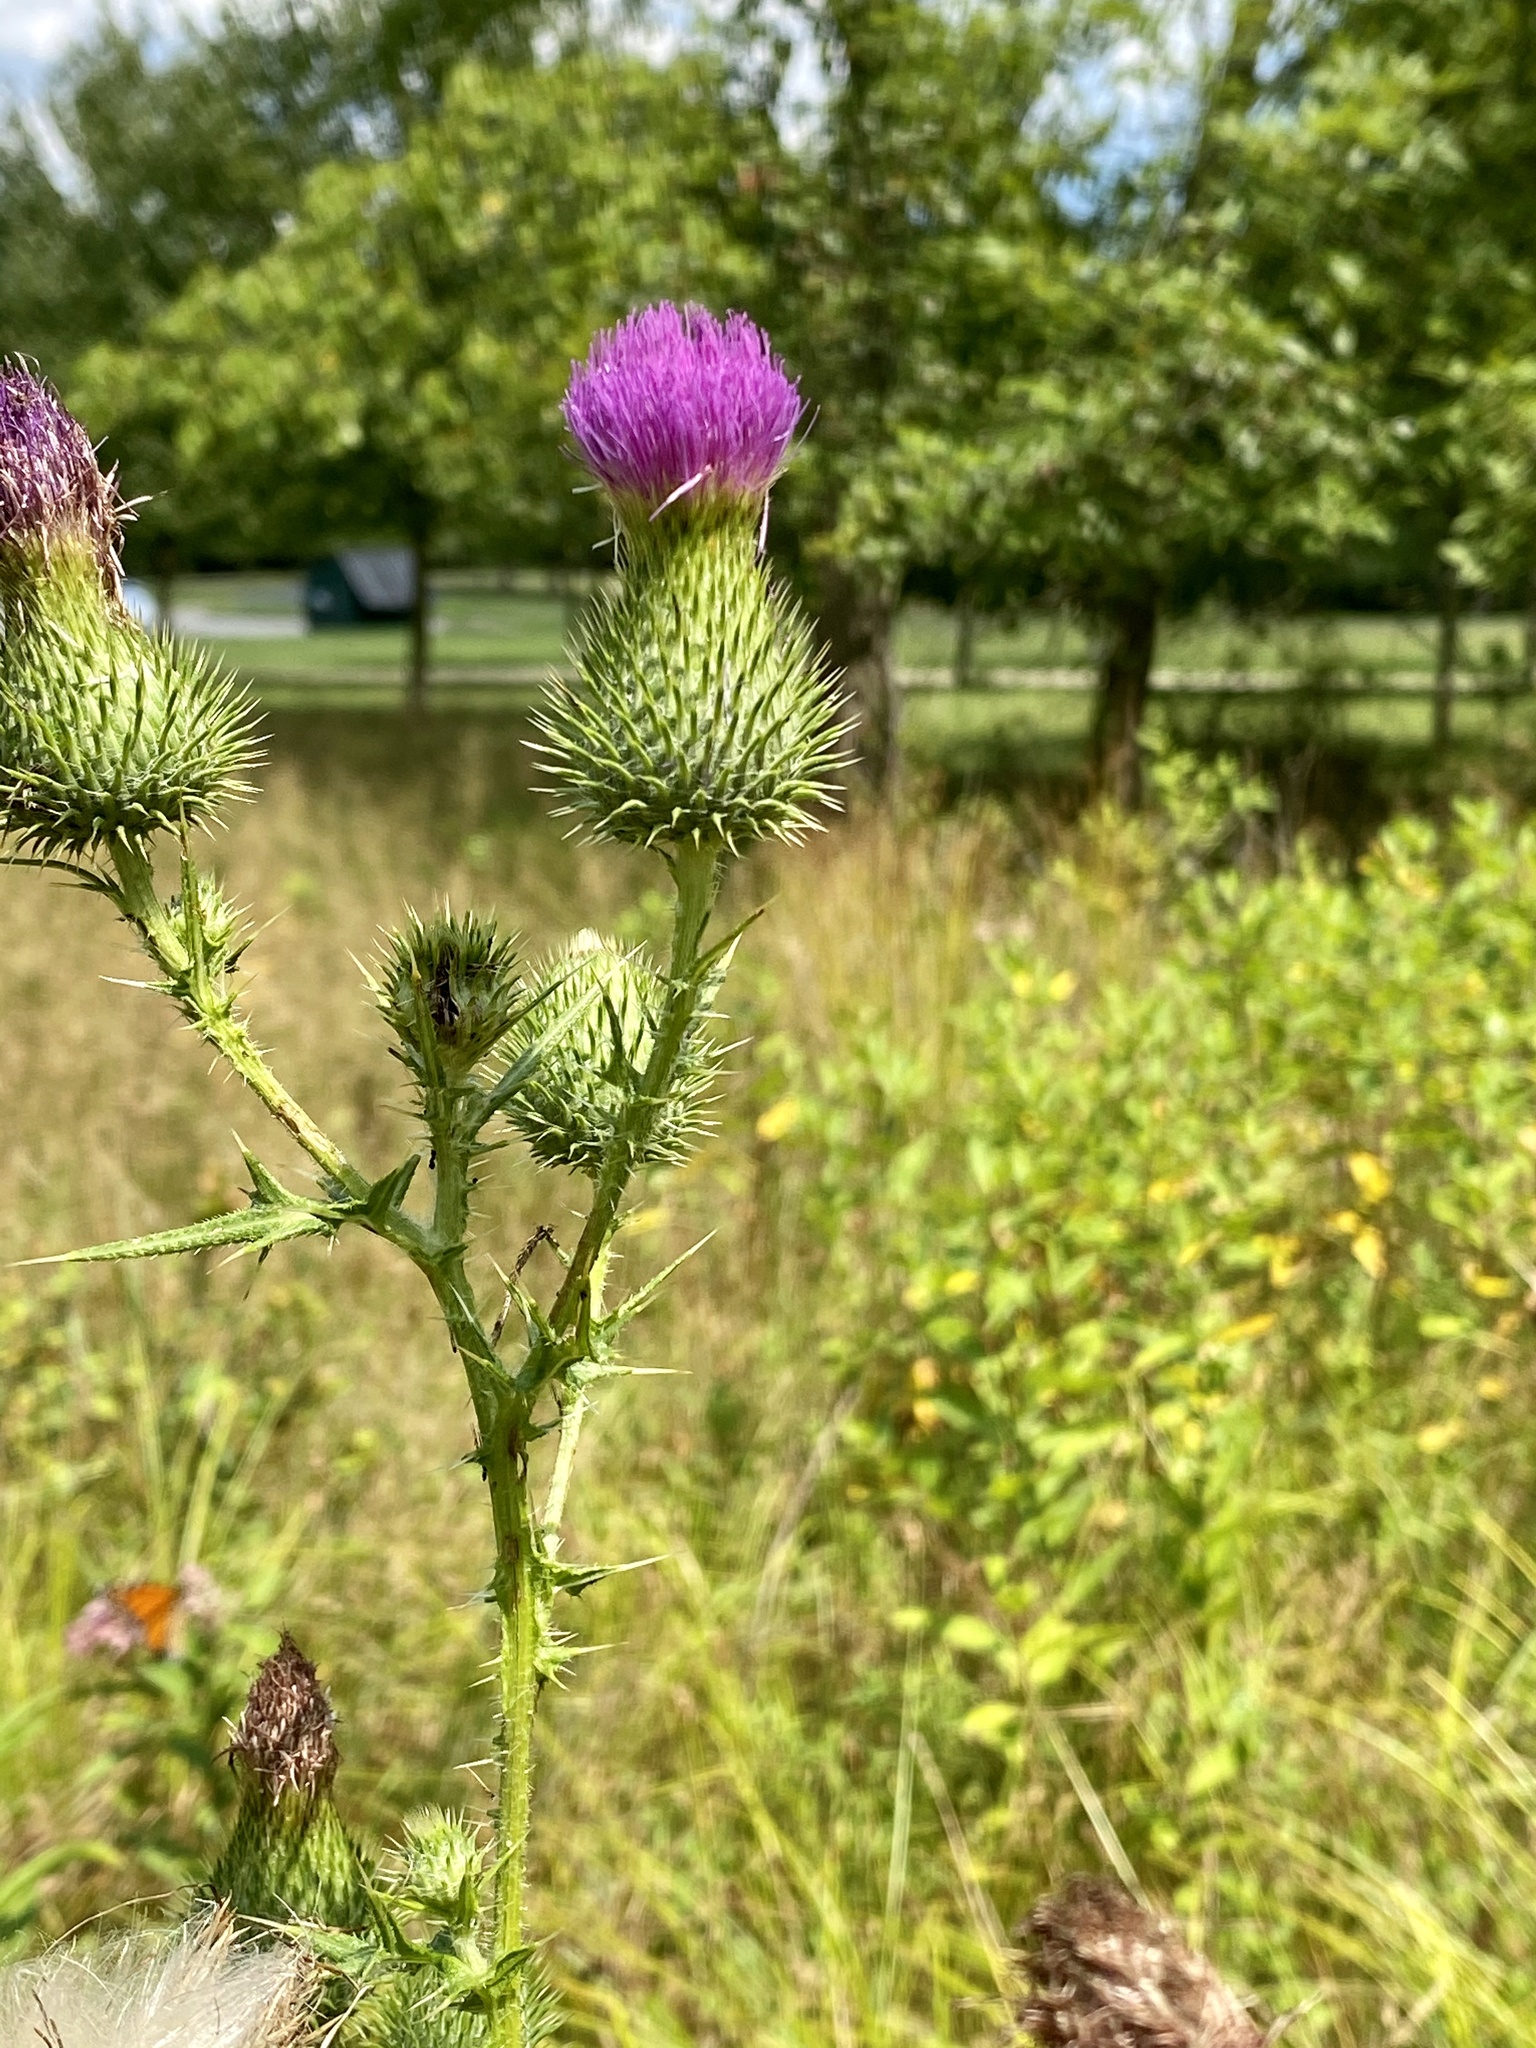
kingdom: Plantae
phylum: Tracheophyta
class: Magnoliopsida
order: Asterales
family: Asteraceae
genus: Cirsium
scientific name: Cirsium vulgare
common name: Bull thistle
